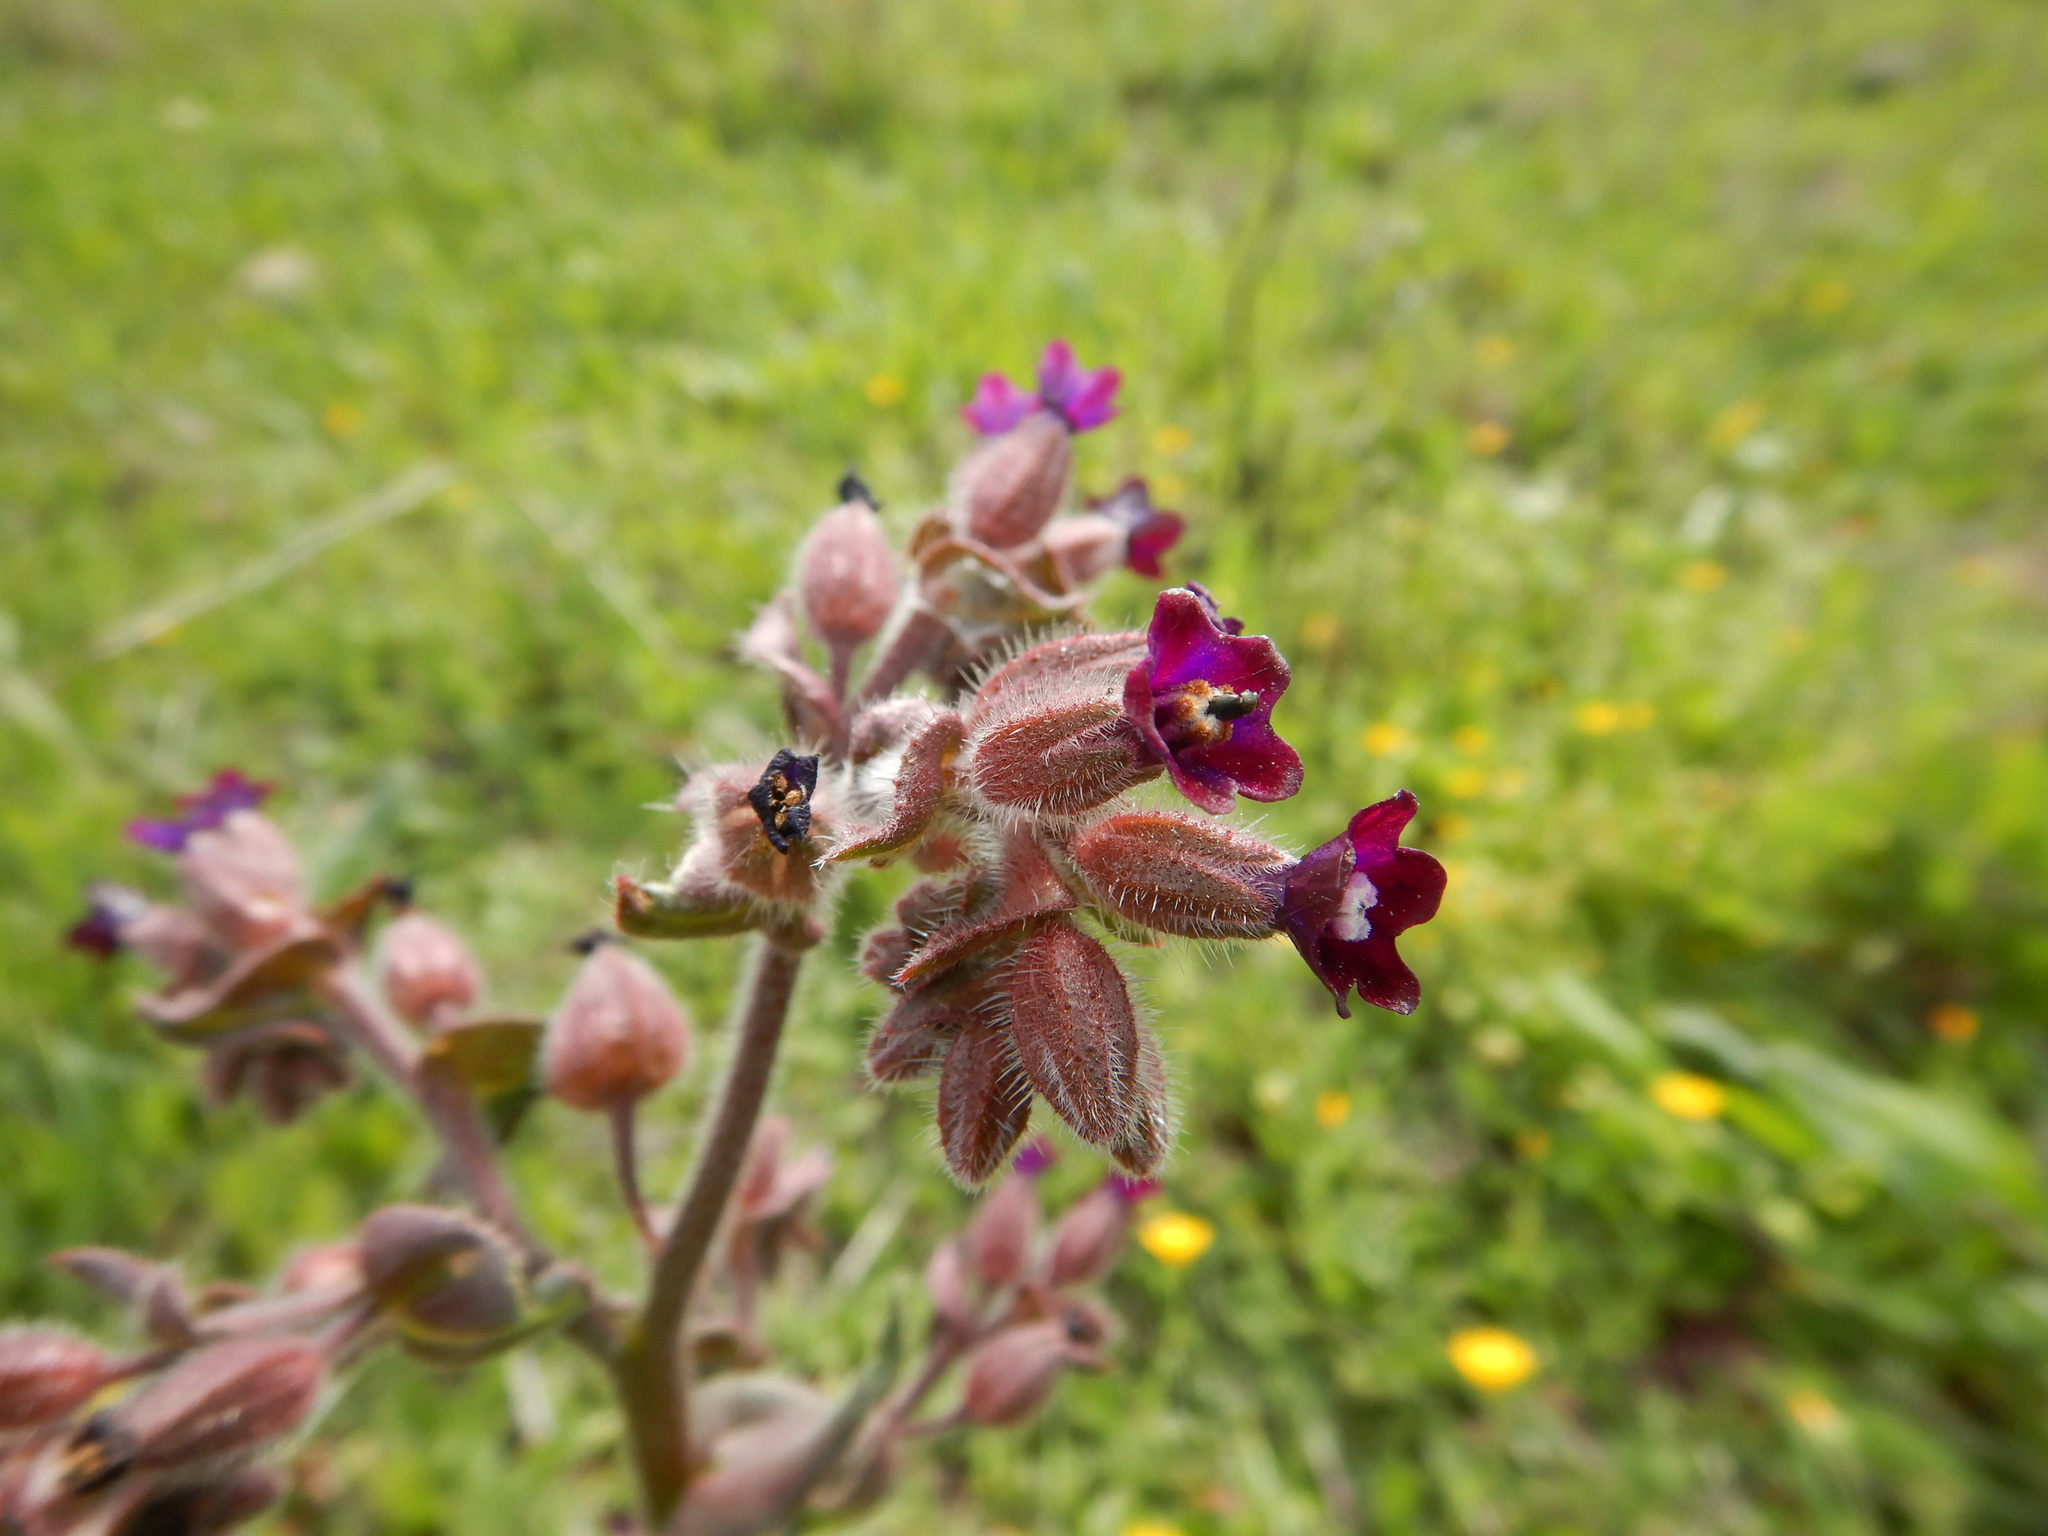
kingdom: Plantae
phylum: Tracheophyta
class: Magnoliopsida
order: Boraginales
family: Boraginaceae
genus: Anchusa
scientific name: Anchusa undulata
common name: Undulate alkanet
